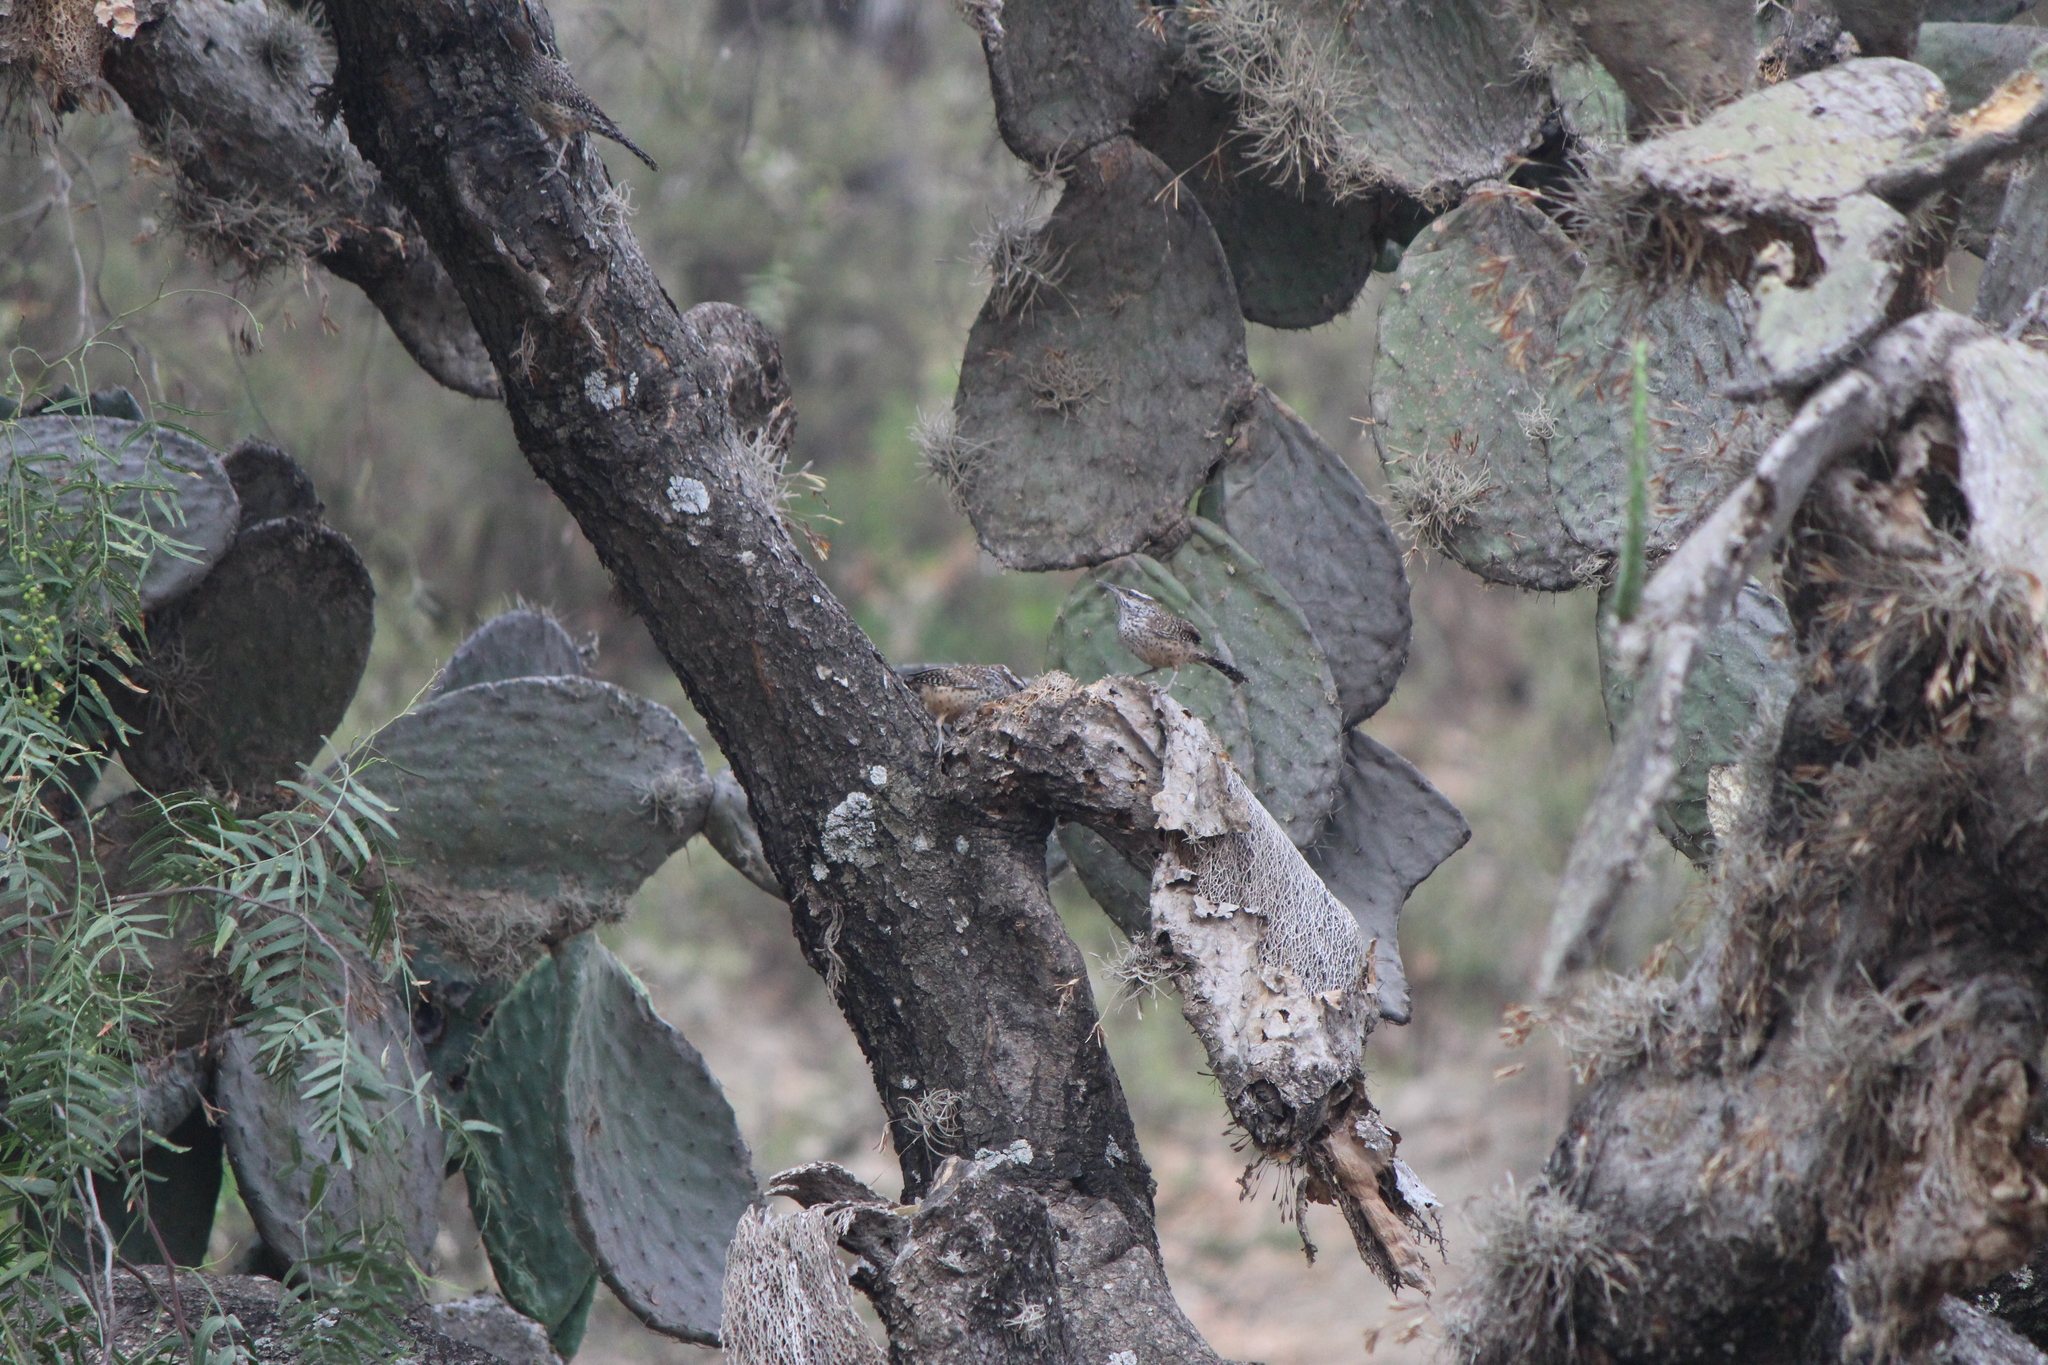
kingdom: Animalia
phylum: Chordata
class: Aves
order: Passeriformes
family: Troglodytidae
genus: Campylorhynchus
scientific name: Campylorhynchus brunneicapillus
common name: Cactus wren
